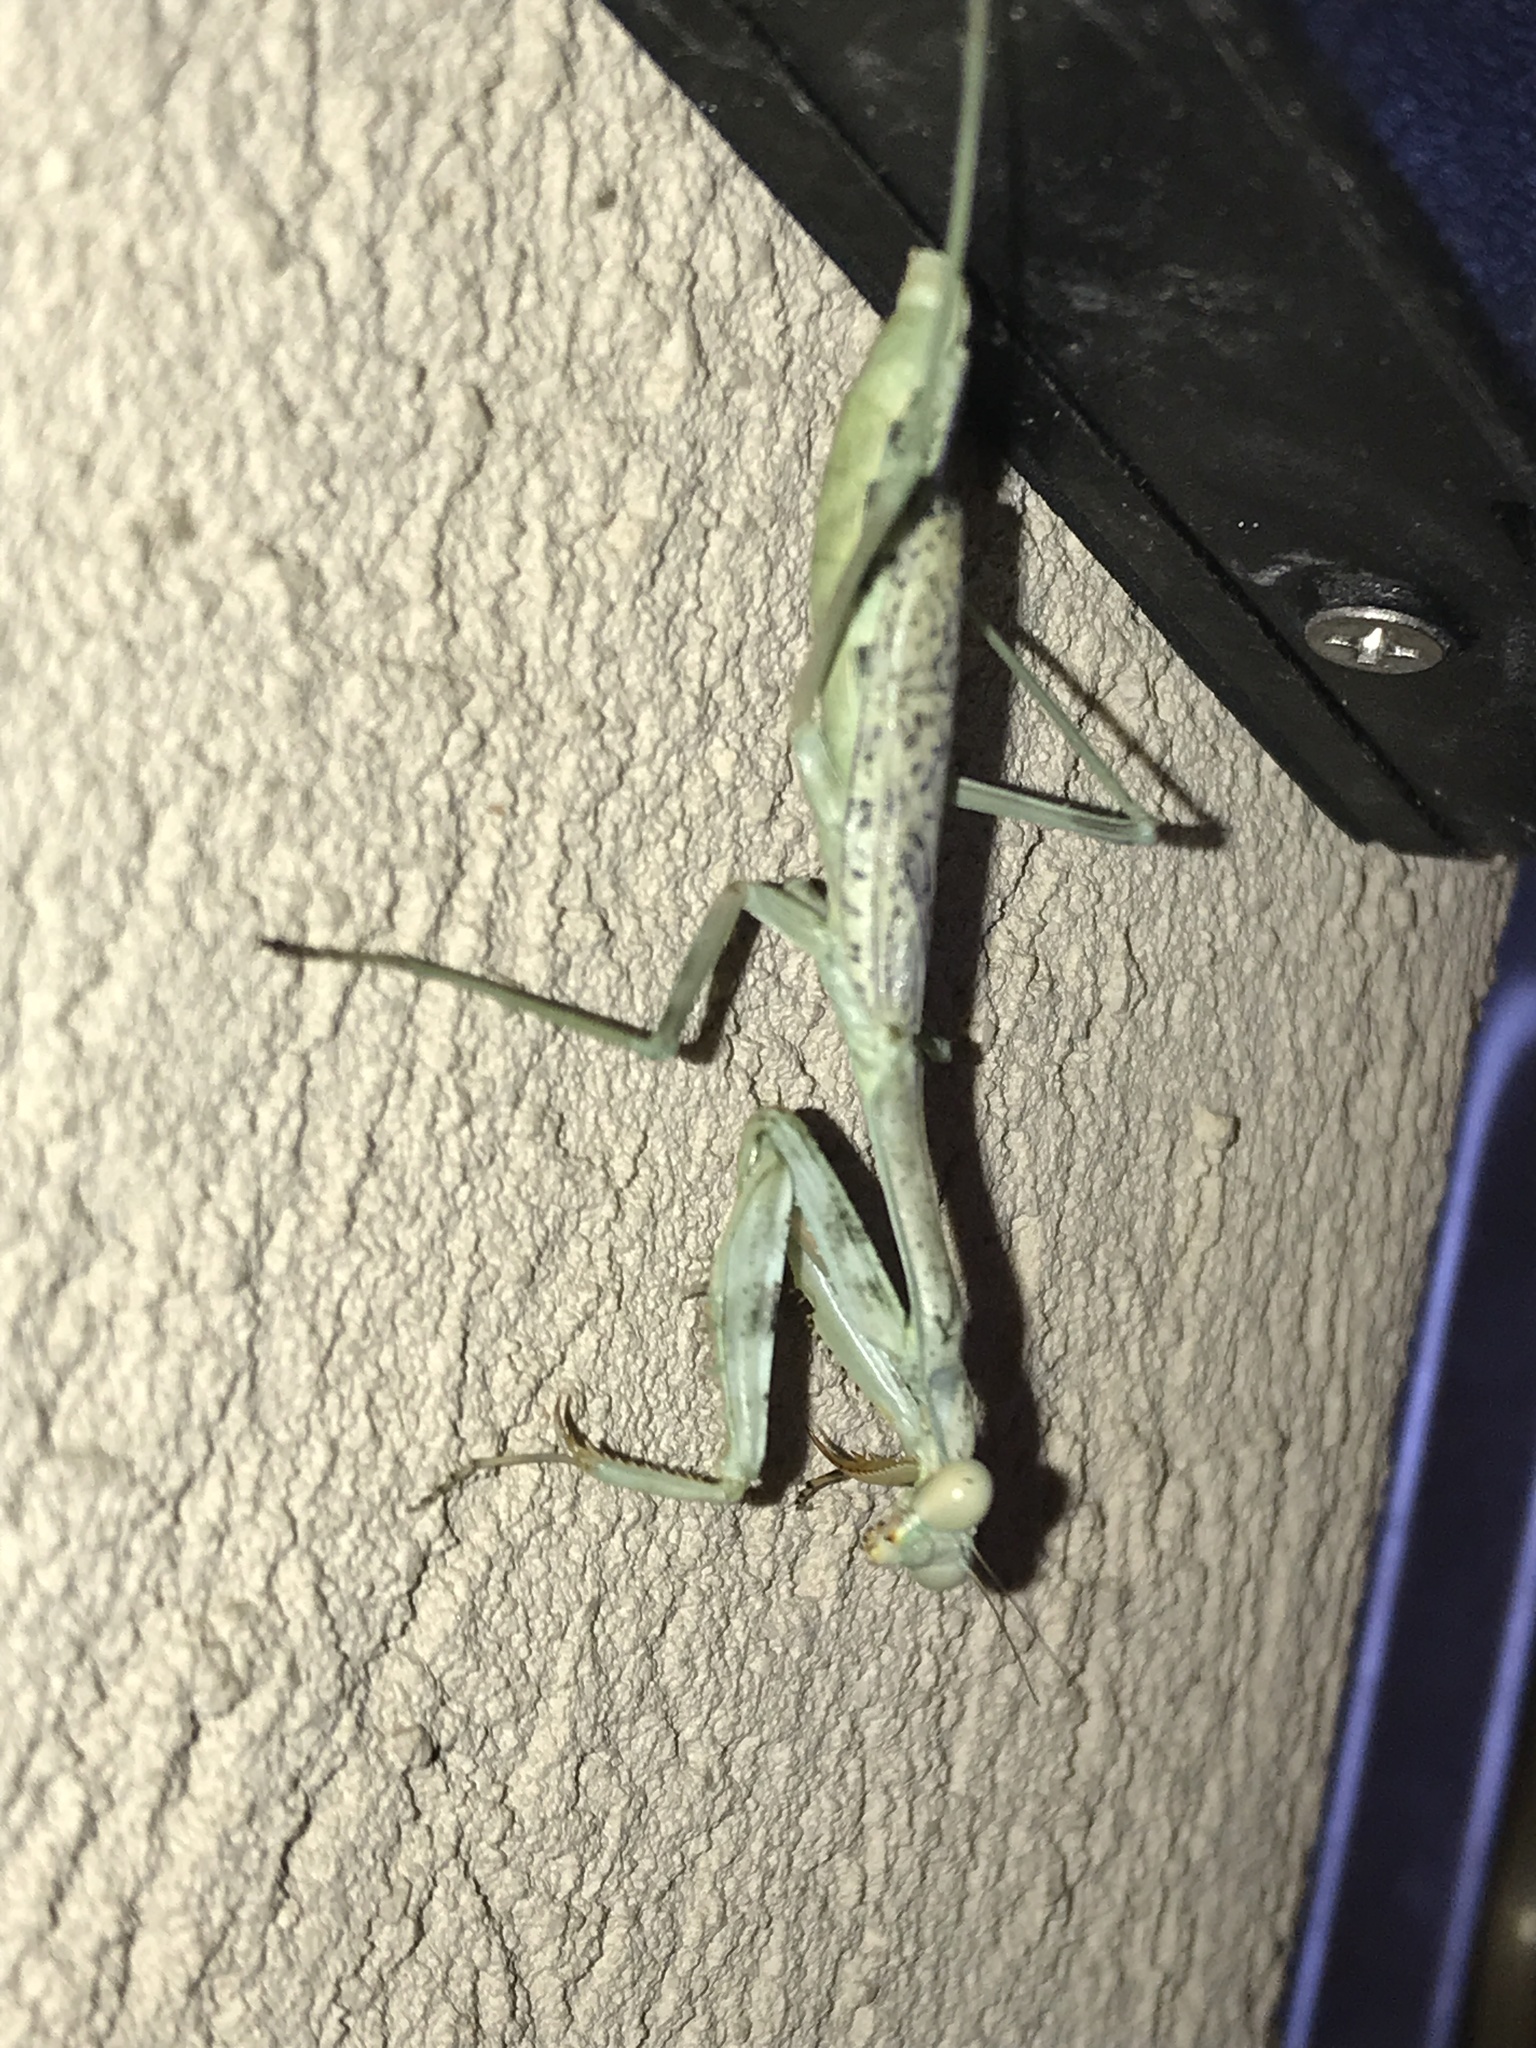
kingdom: Animalia
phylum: Arthropoda
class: Insecta
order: Mantodea
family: Mantidae
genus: Stagmomantis
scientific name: Stagmomantis californica
